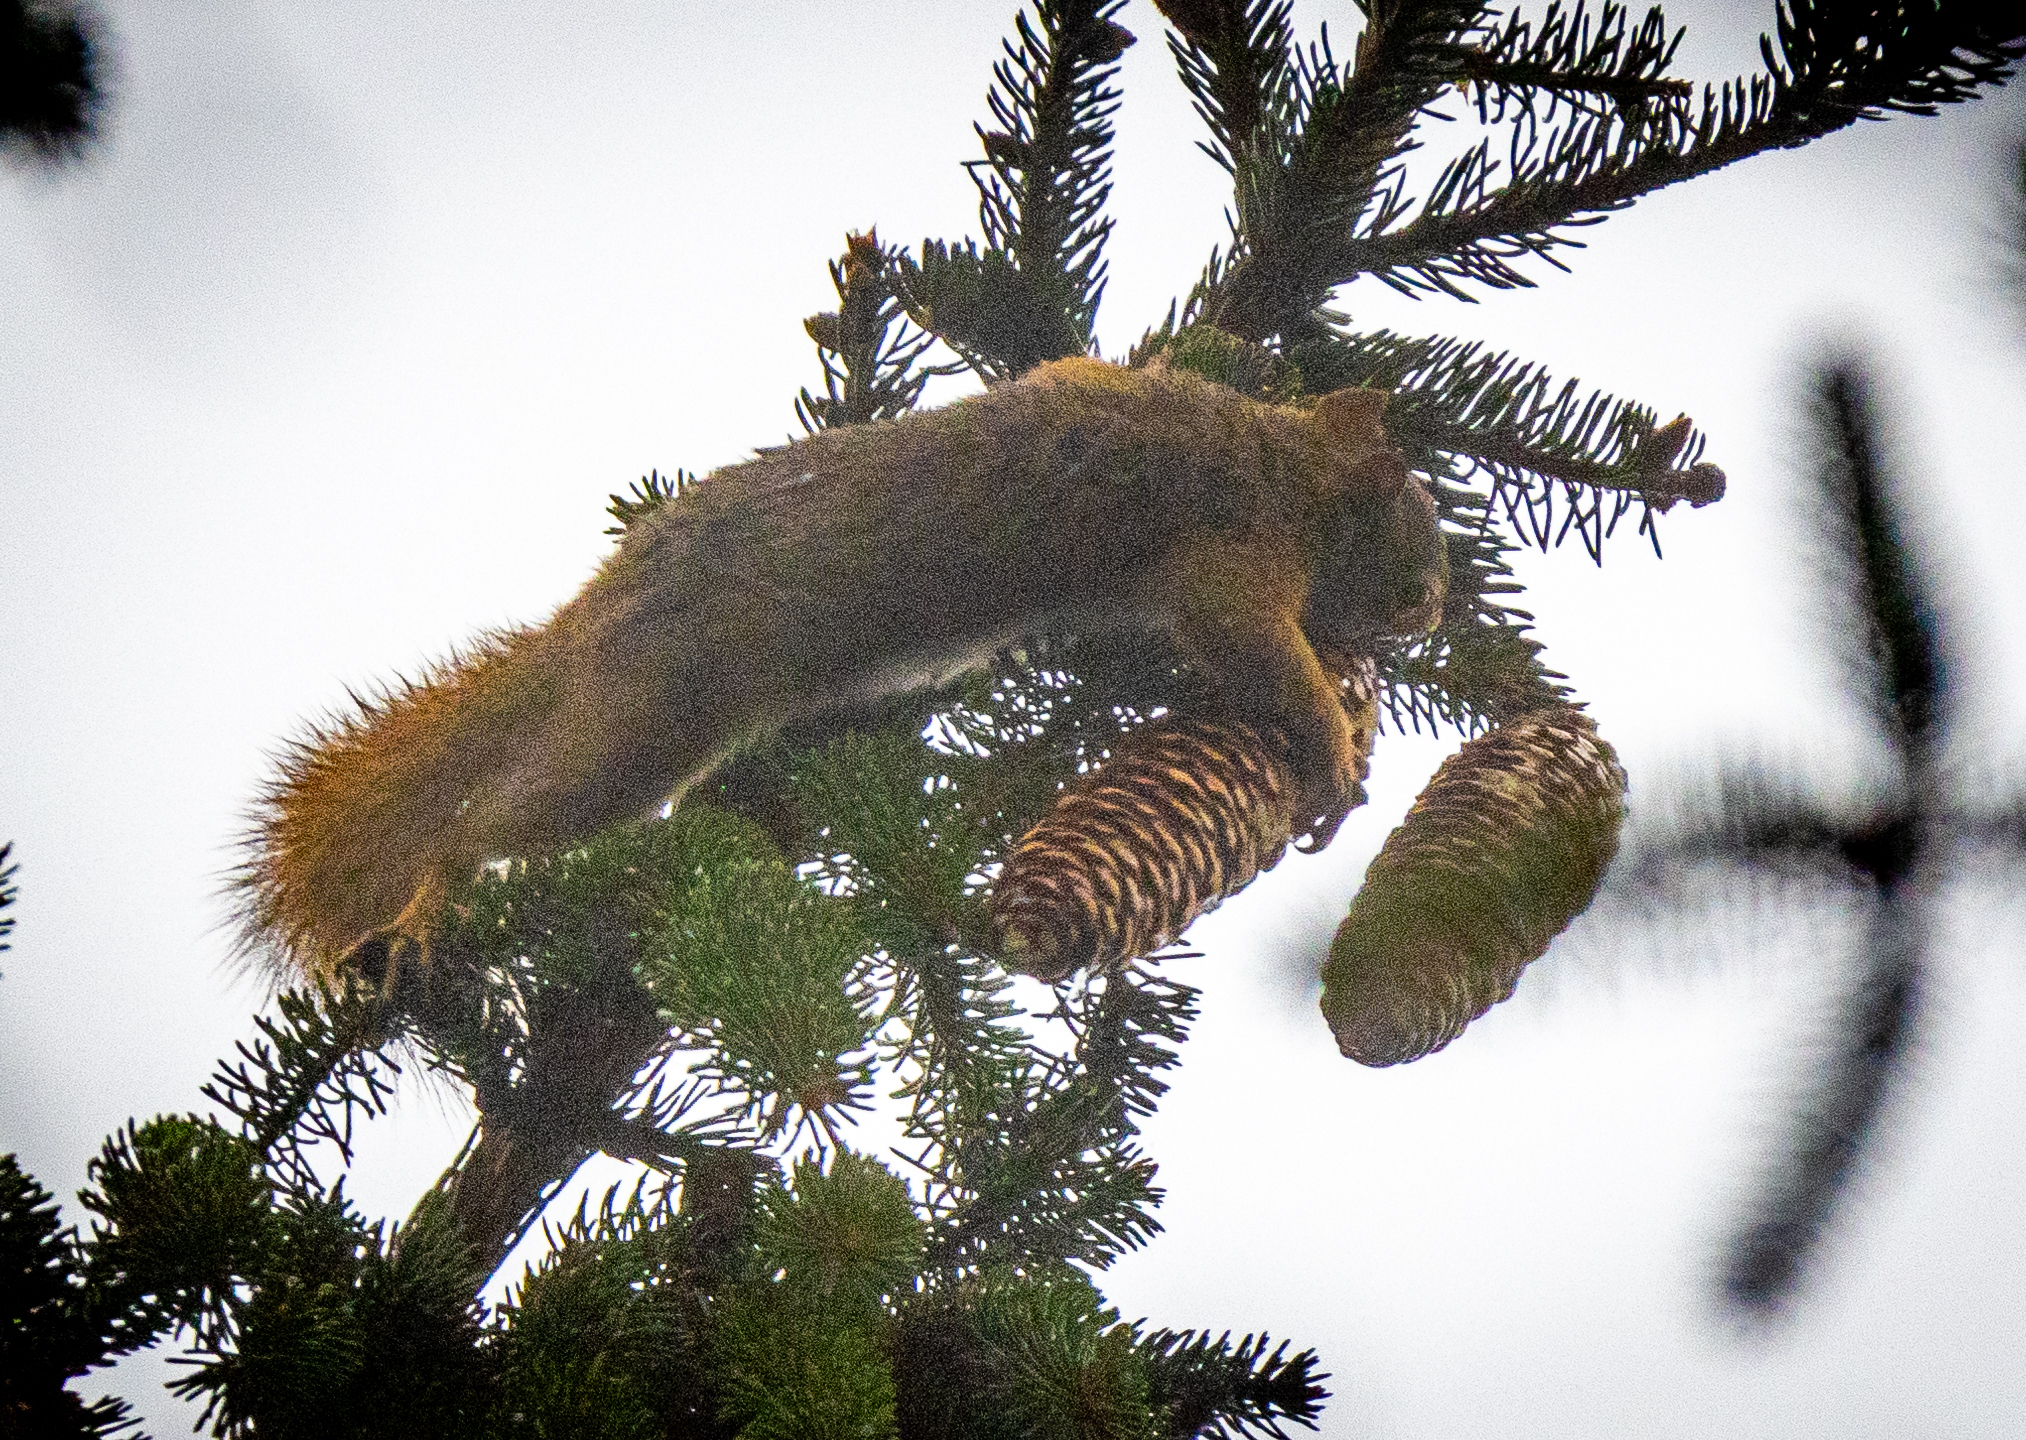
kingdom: Animalia
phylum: Chordata
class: Mammalia
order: Rodentia
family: Sciuridae
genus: Tamiasciurus
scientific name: Tamiasciurus hudsonicus
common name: Red squirrel
